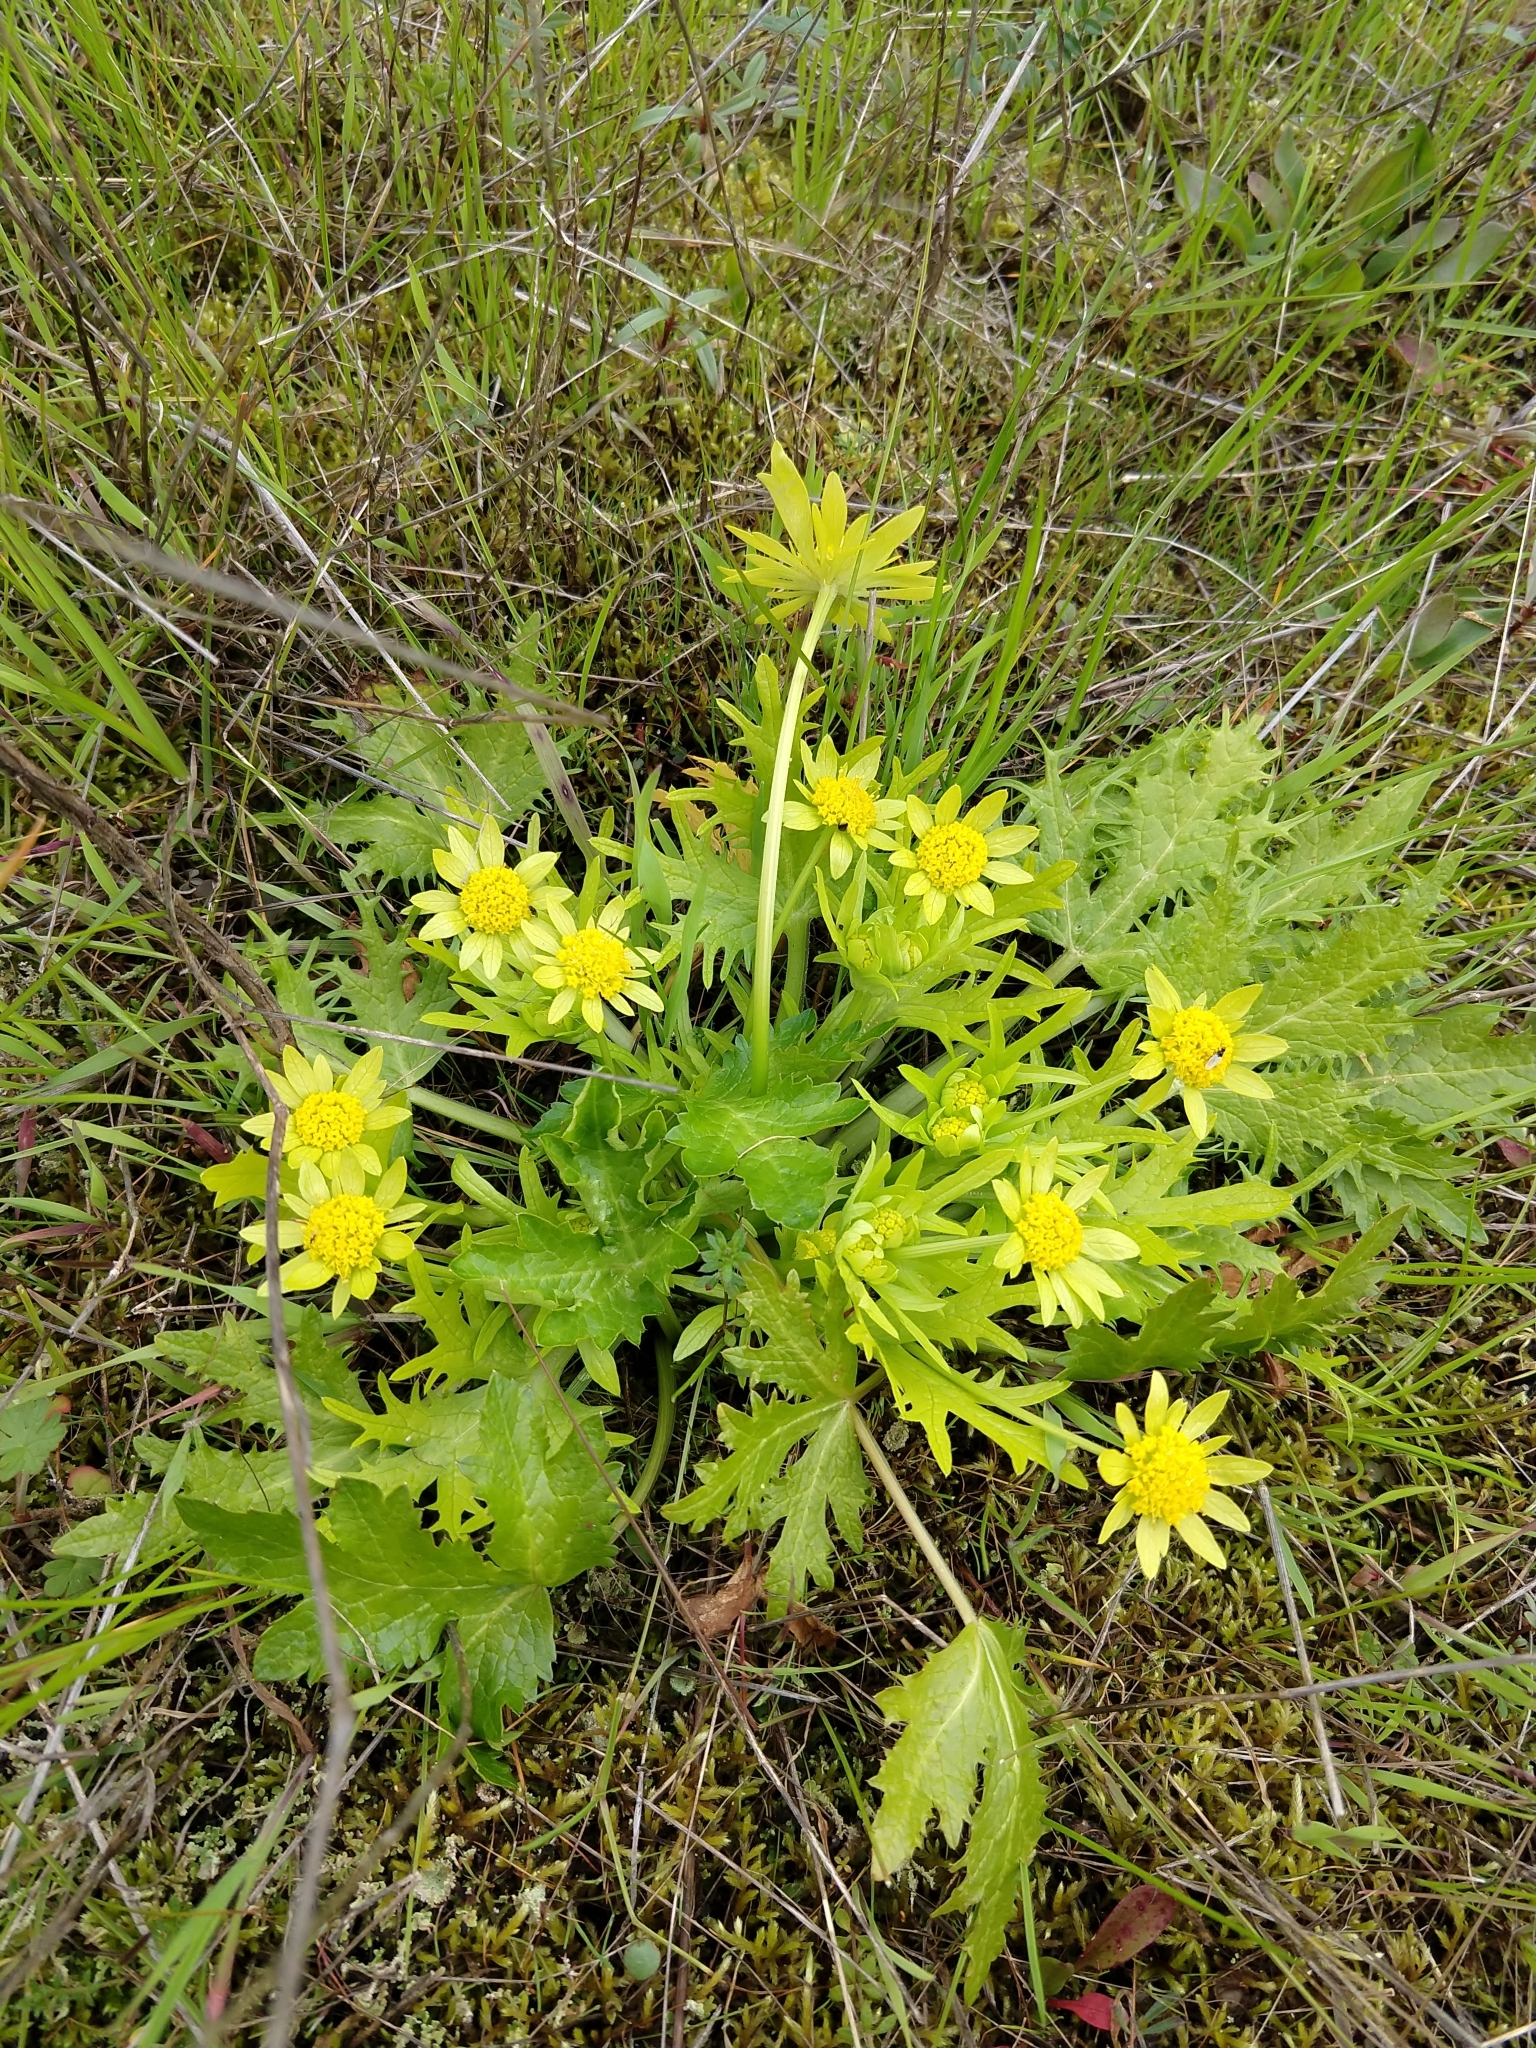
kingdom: Plantae
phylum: Tracheophyta
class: Magnoliopsida
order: Apiales
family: Apiaceae
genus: Sanicula
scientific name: Sanicula arctopoides
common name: Footsteps-of-spring
